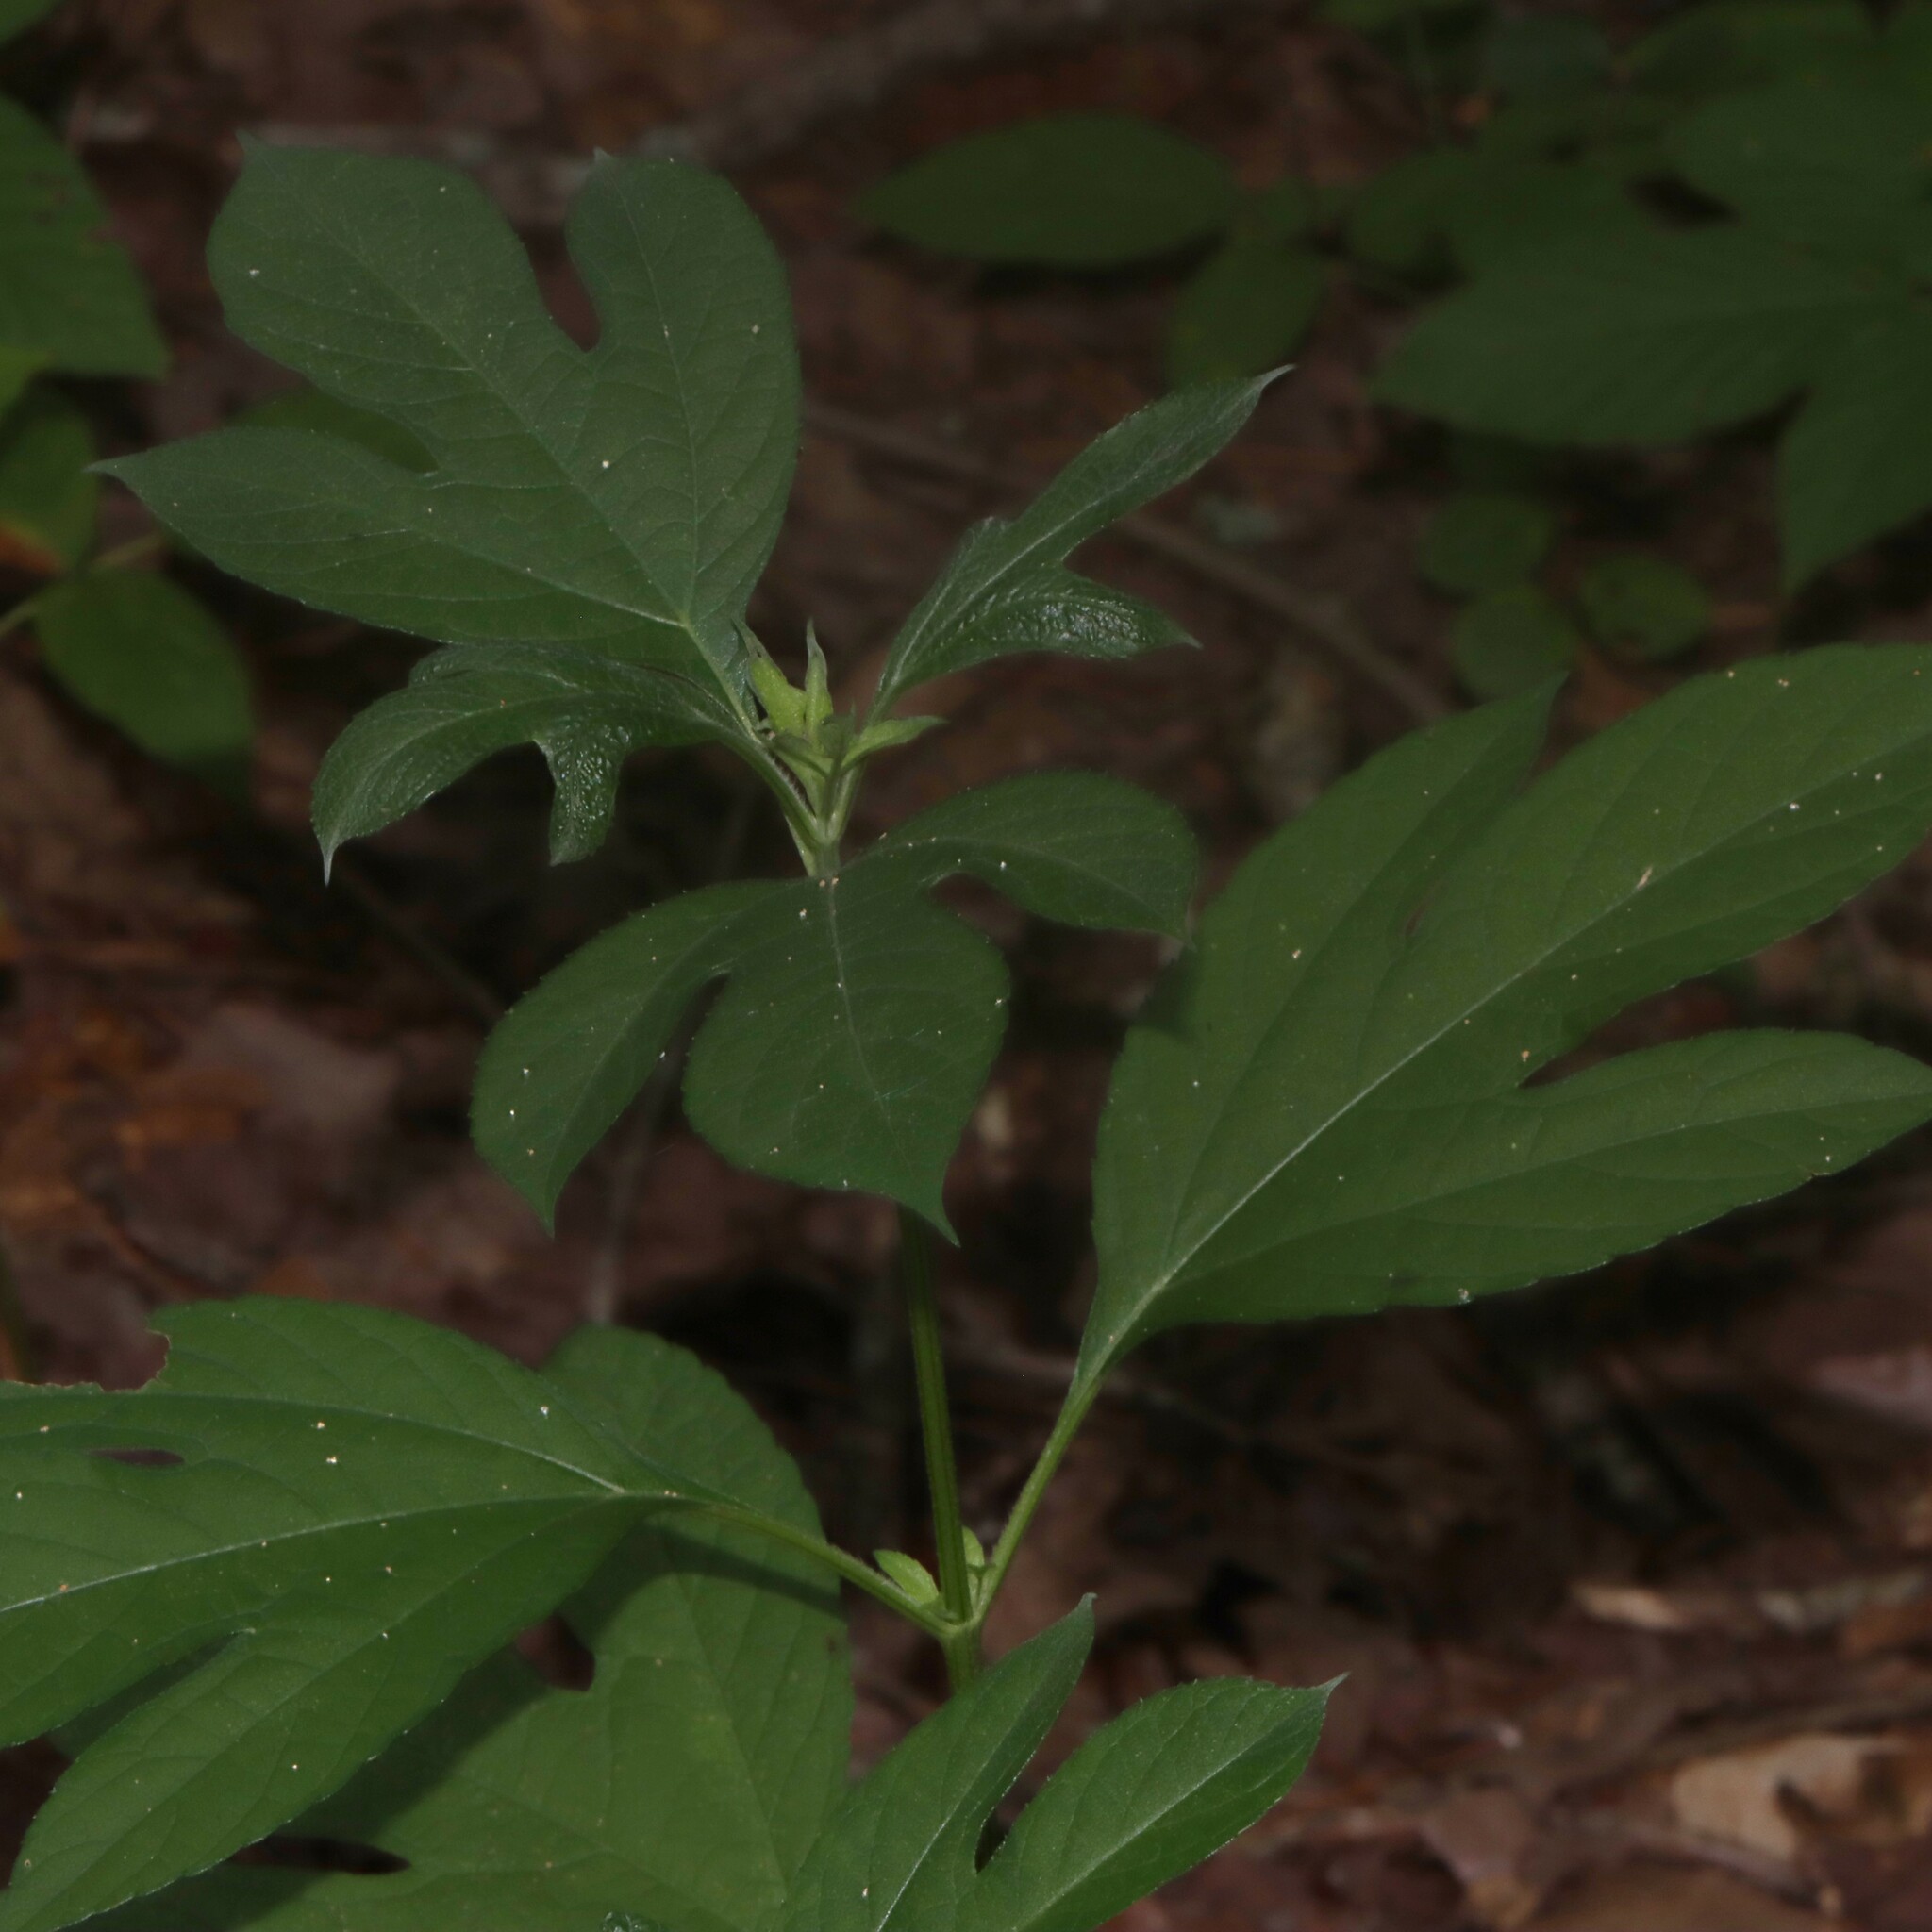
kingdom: Plantae
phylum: Tracheophyta
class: Magnoliopsida
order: Asterales
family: Asteraceae
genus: Ambrosia
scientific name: Ambrosia trifida
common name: Giant ragweed
